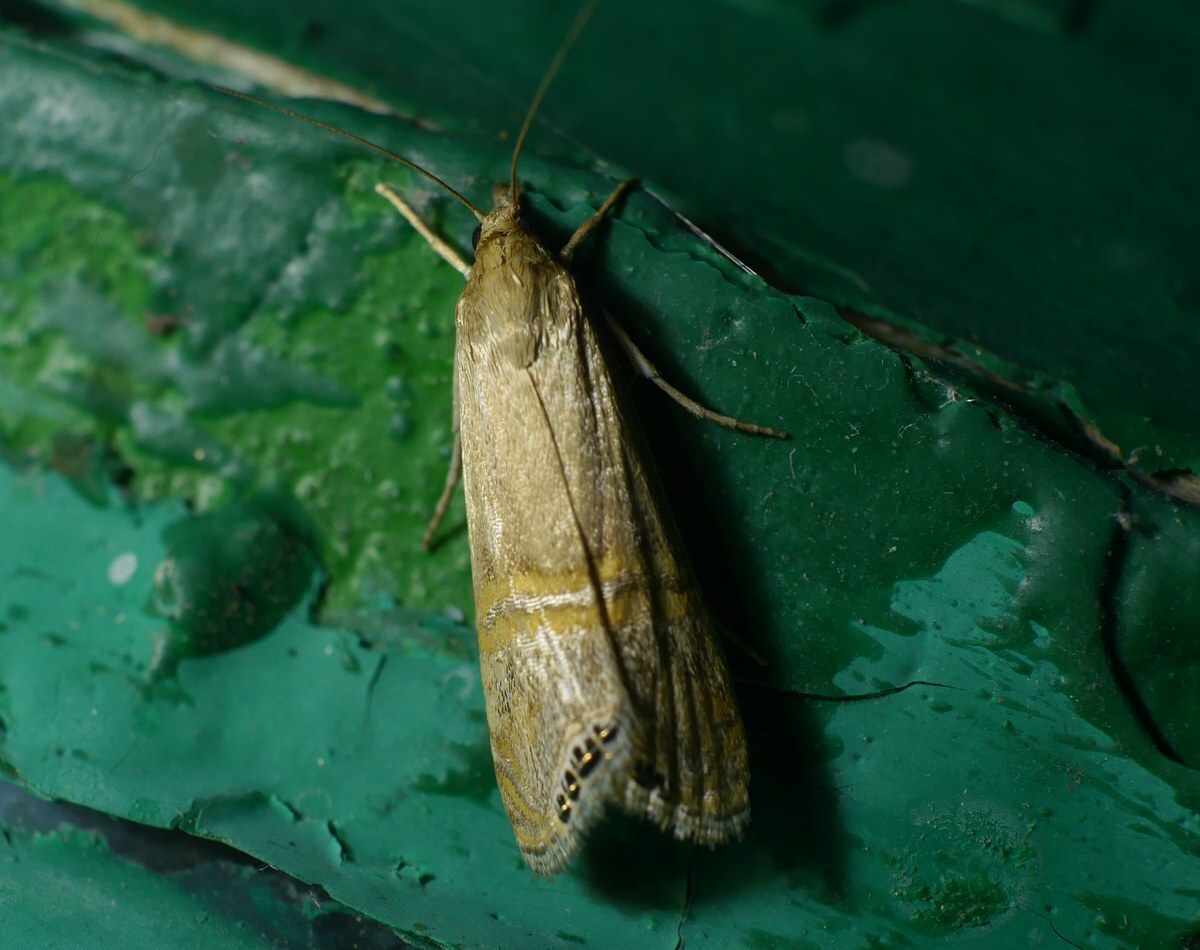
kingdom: Animalia
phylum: Arthropoda
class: Insecta
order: Lepidoptera
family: Crambidae
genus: Euchromius
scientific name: Euchromius ocellea
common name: Necklace veneer moth
